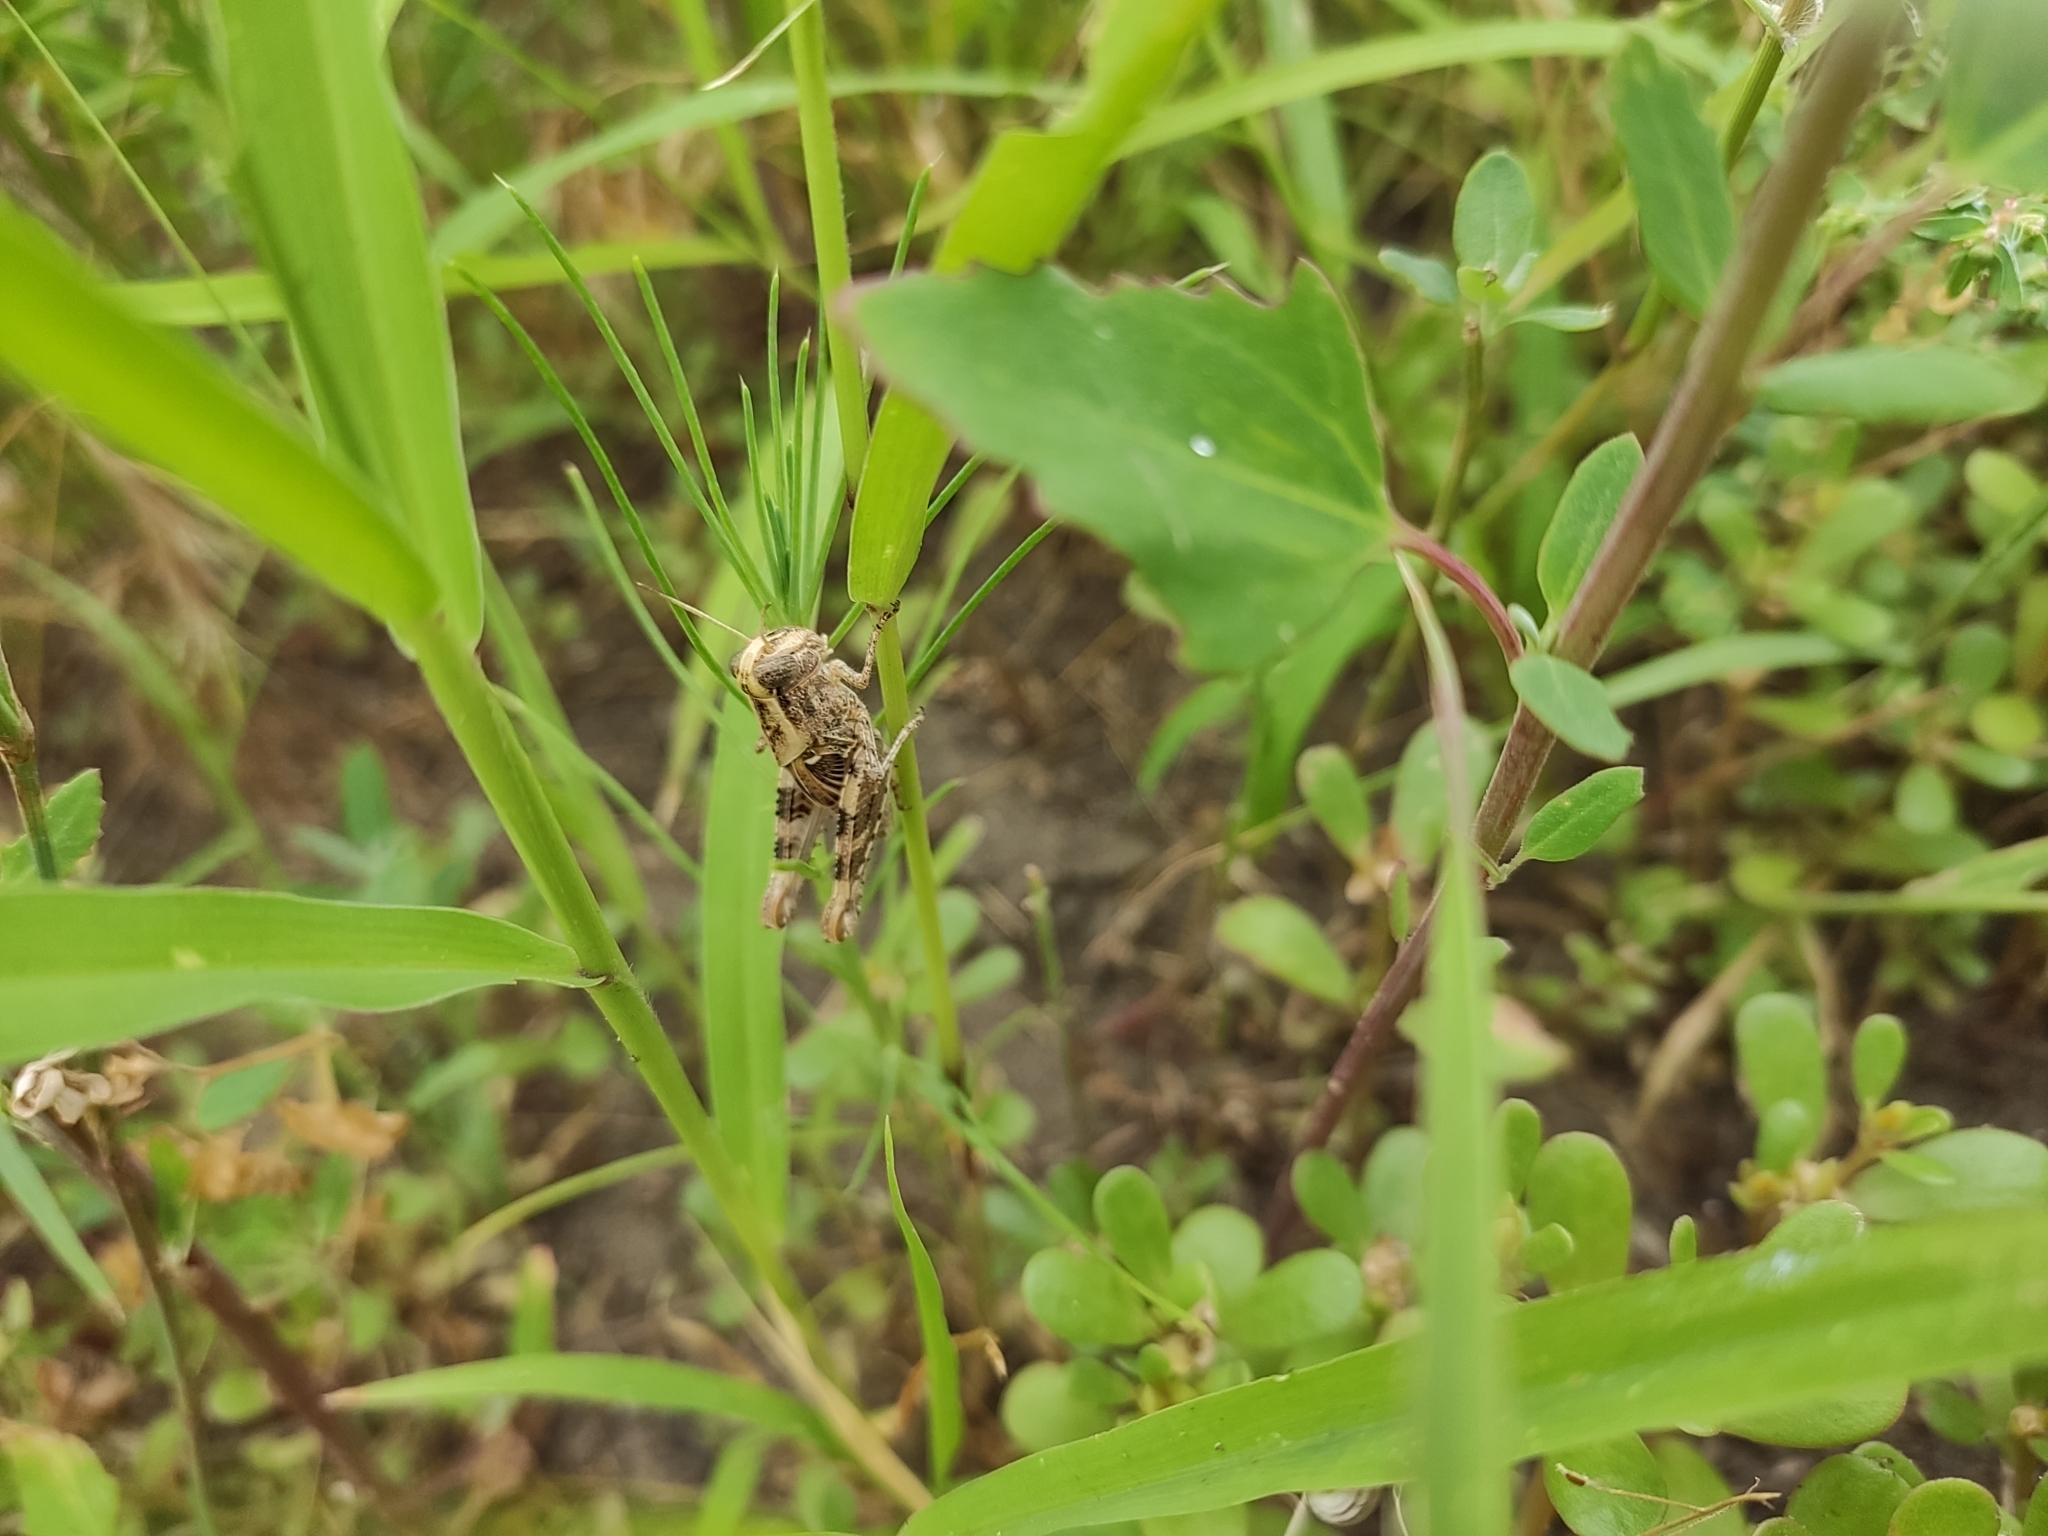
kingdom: Animalia
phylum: Arthropoda
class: Insecta
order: Orthoptera
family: Acrididae
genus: Calliptamus
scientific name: Calliptamus barbarus
